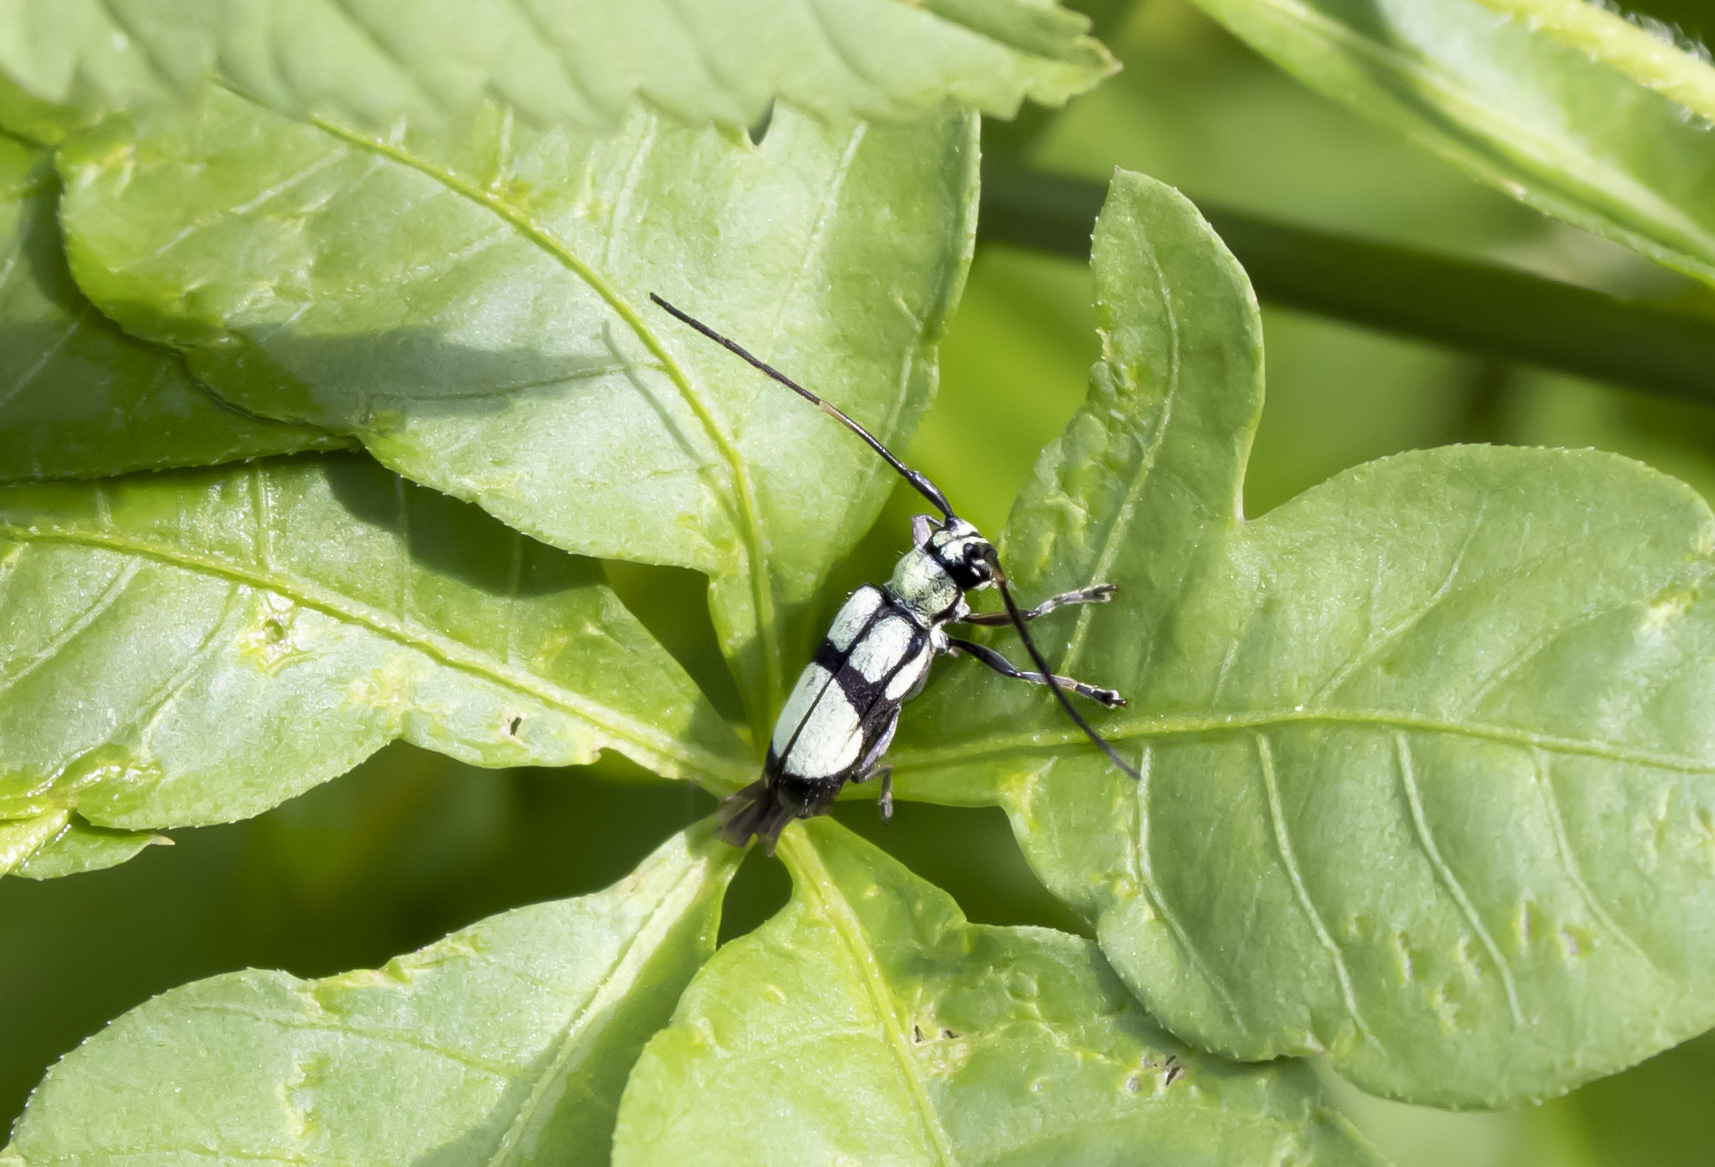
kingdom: Animalia
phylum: Arthropoda
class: Insecta
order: Coleoptera
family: Cerambycidae
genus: Adesmus
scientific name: Adesmus clathratus
